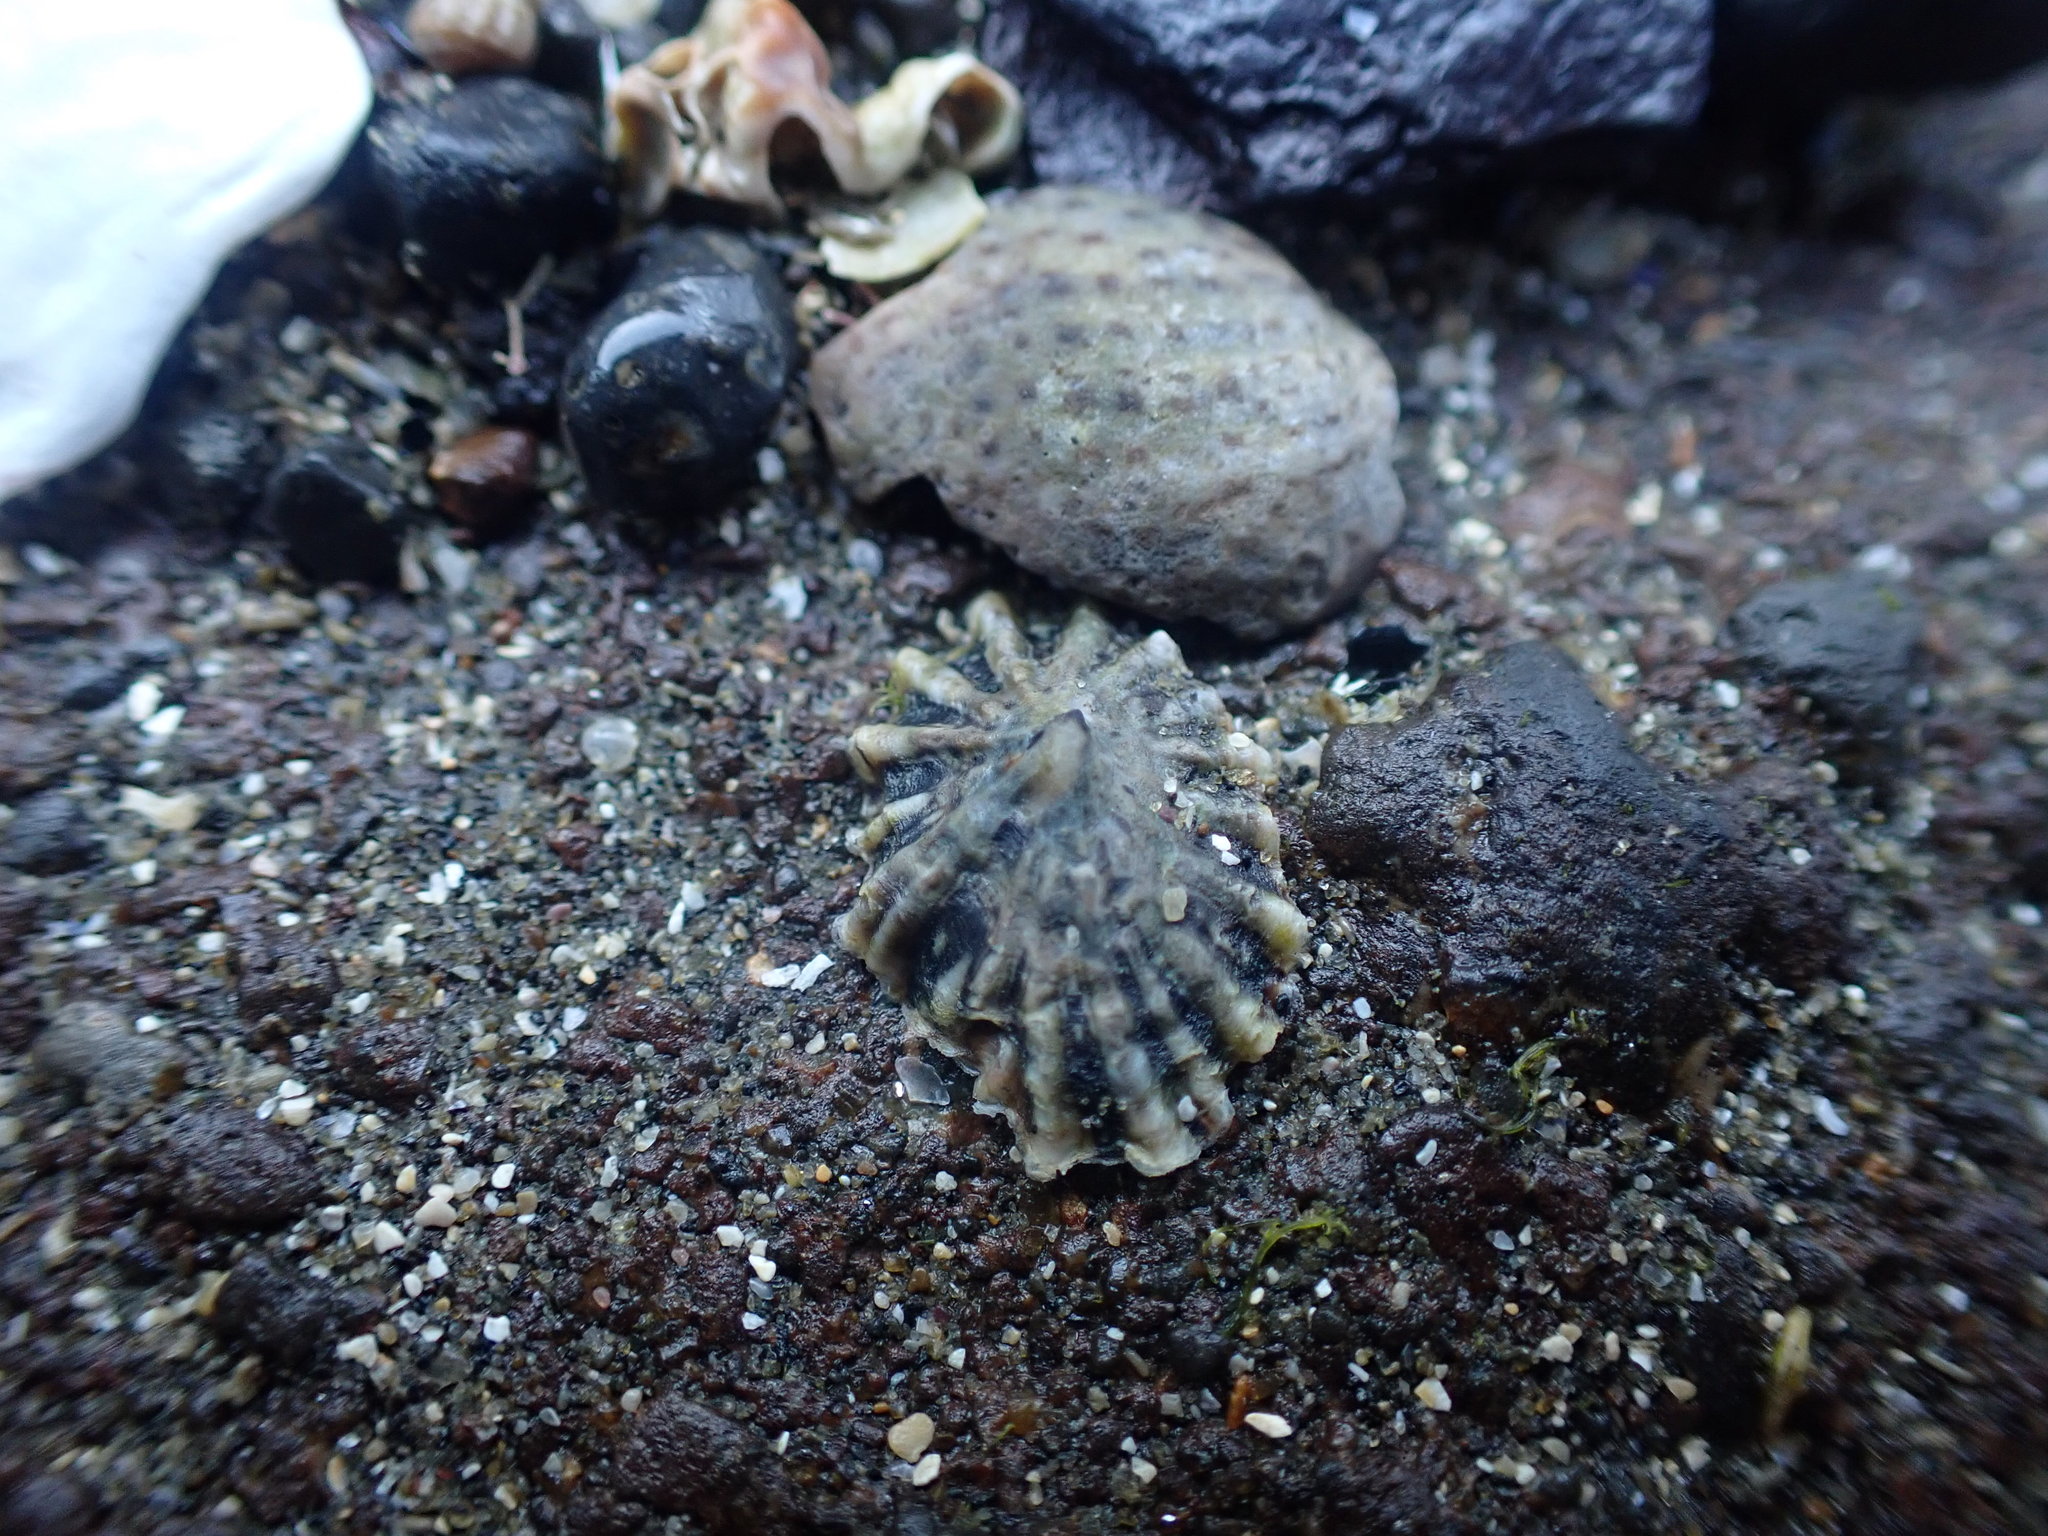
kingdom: Animalia
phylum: Mollusca
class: Gastropoda
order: Siphonariida
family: Siphonariidae
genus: Siphonaria
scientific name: Siphonaria australis
